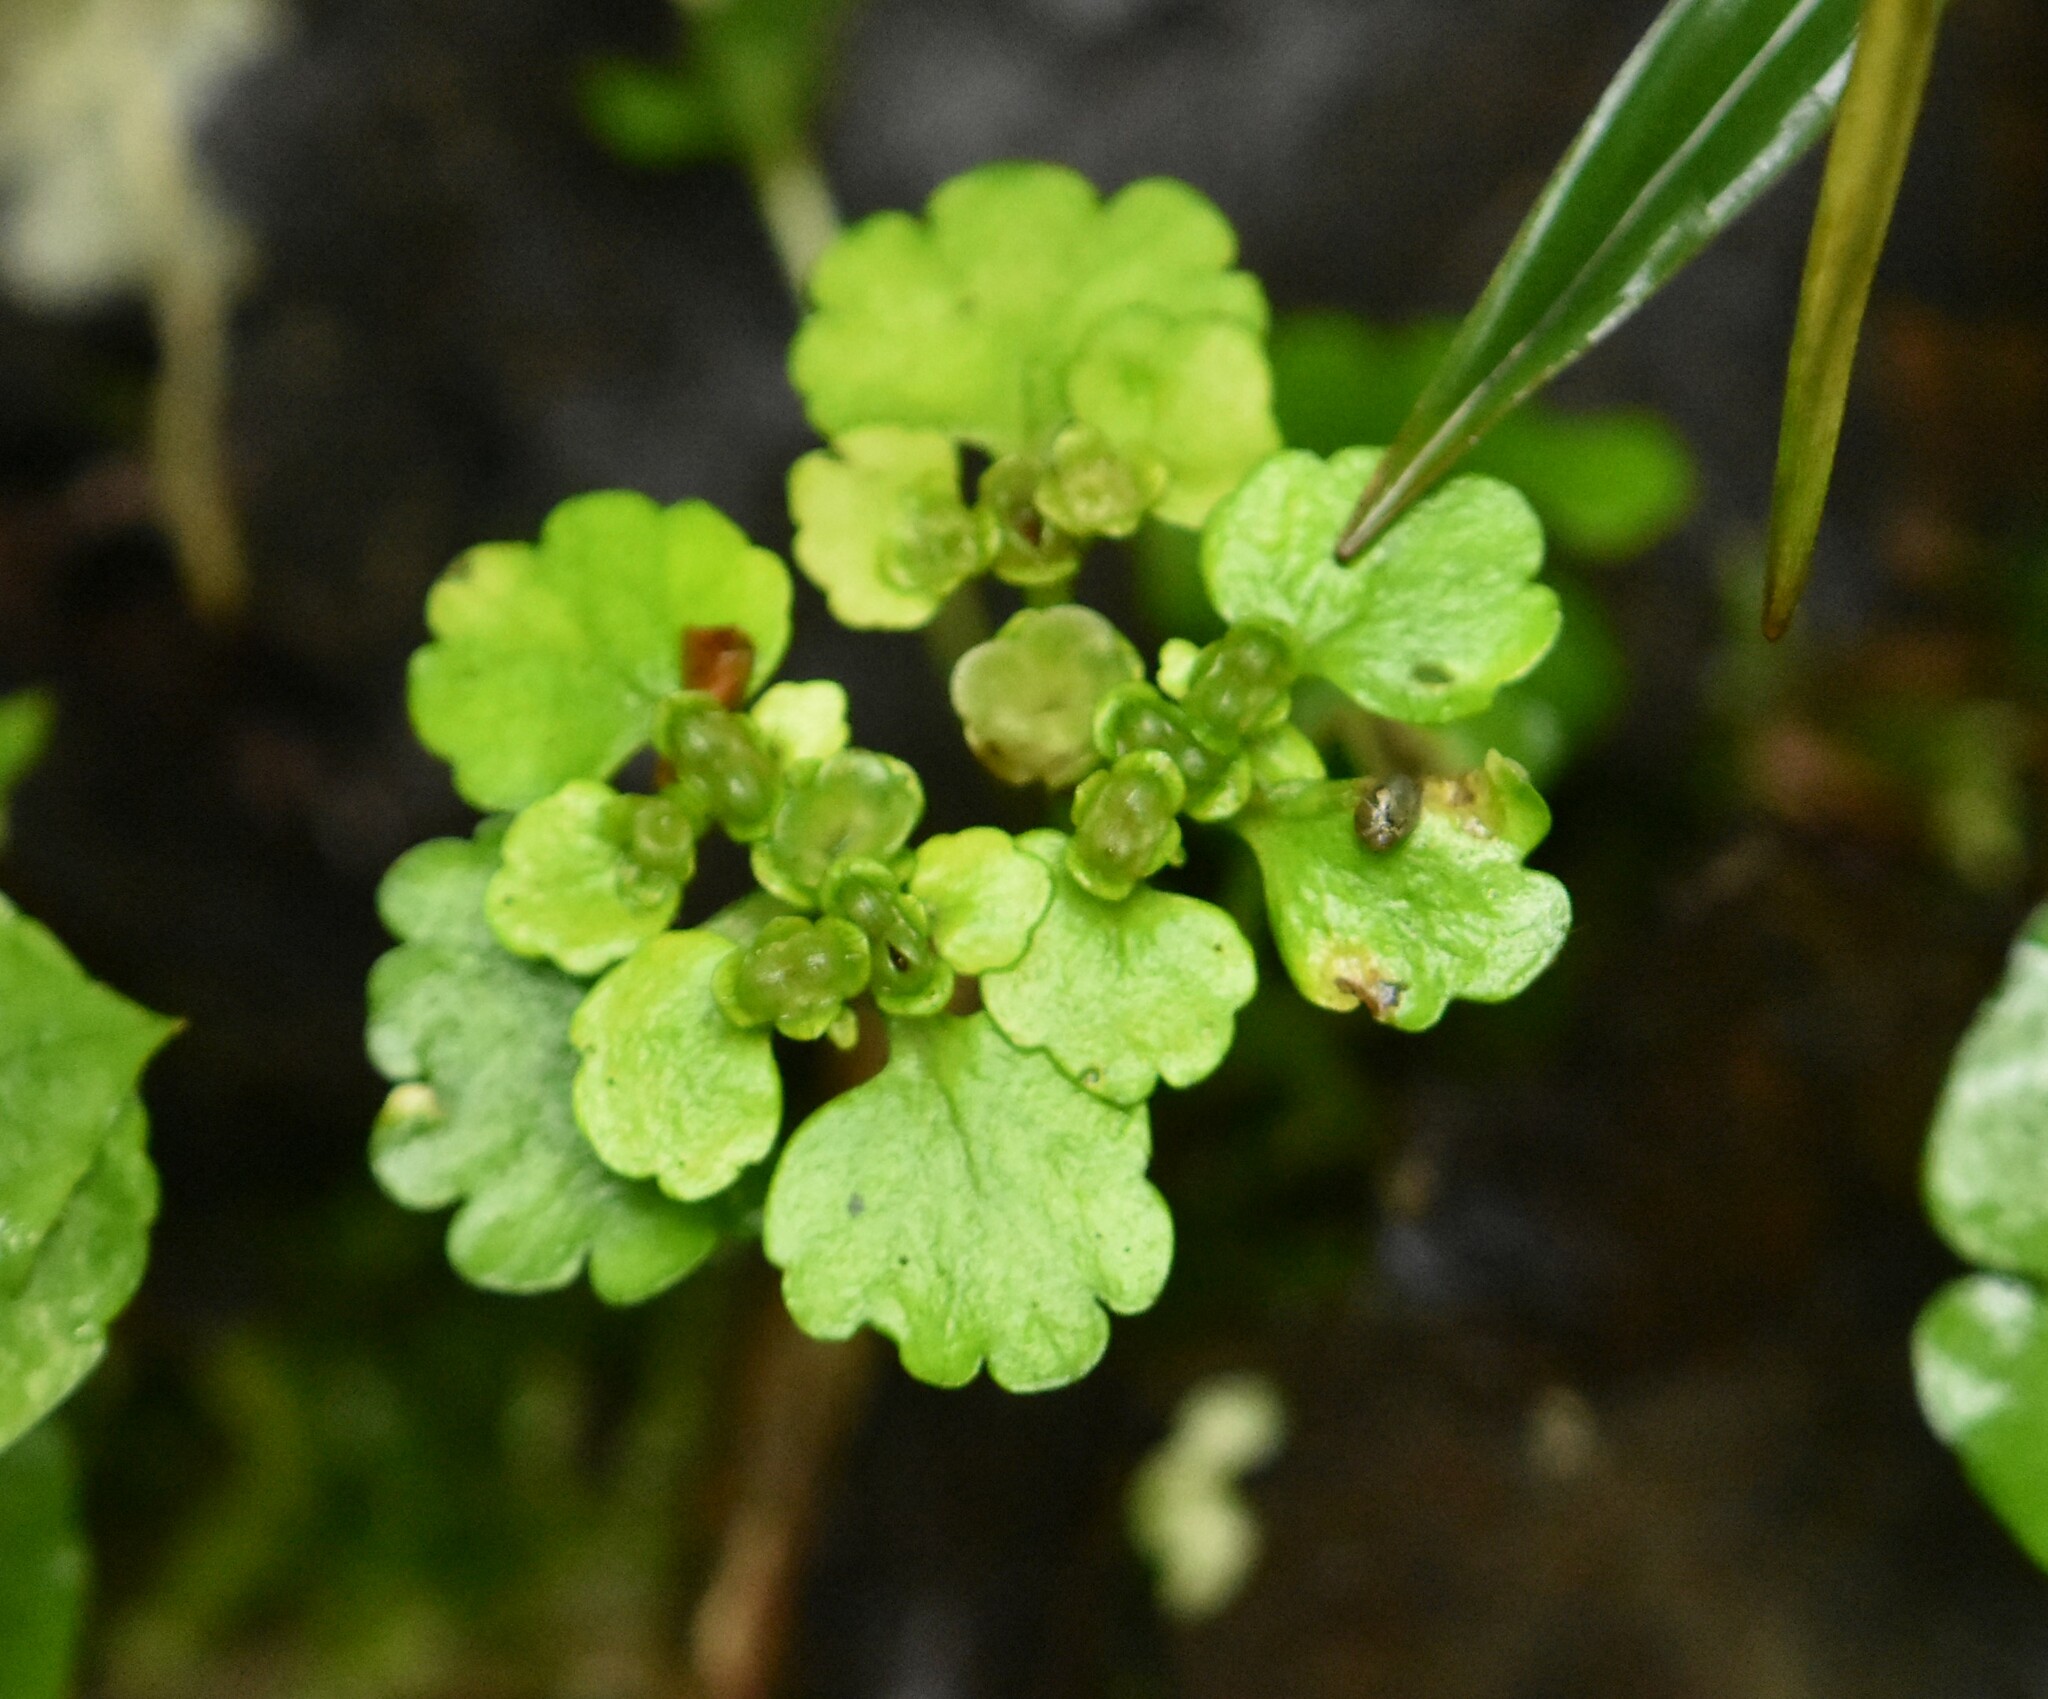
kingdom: Plantae
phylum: Tracheophyta
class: Magnoliopsida
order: Saxifragales
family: Saxifragaceae
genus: Chrysosplenium
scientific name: Chrysosplenium alternifolium
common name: Alternate-leaved golden-saxifrage
